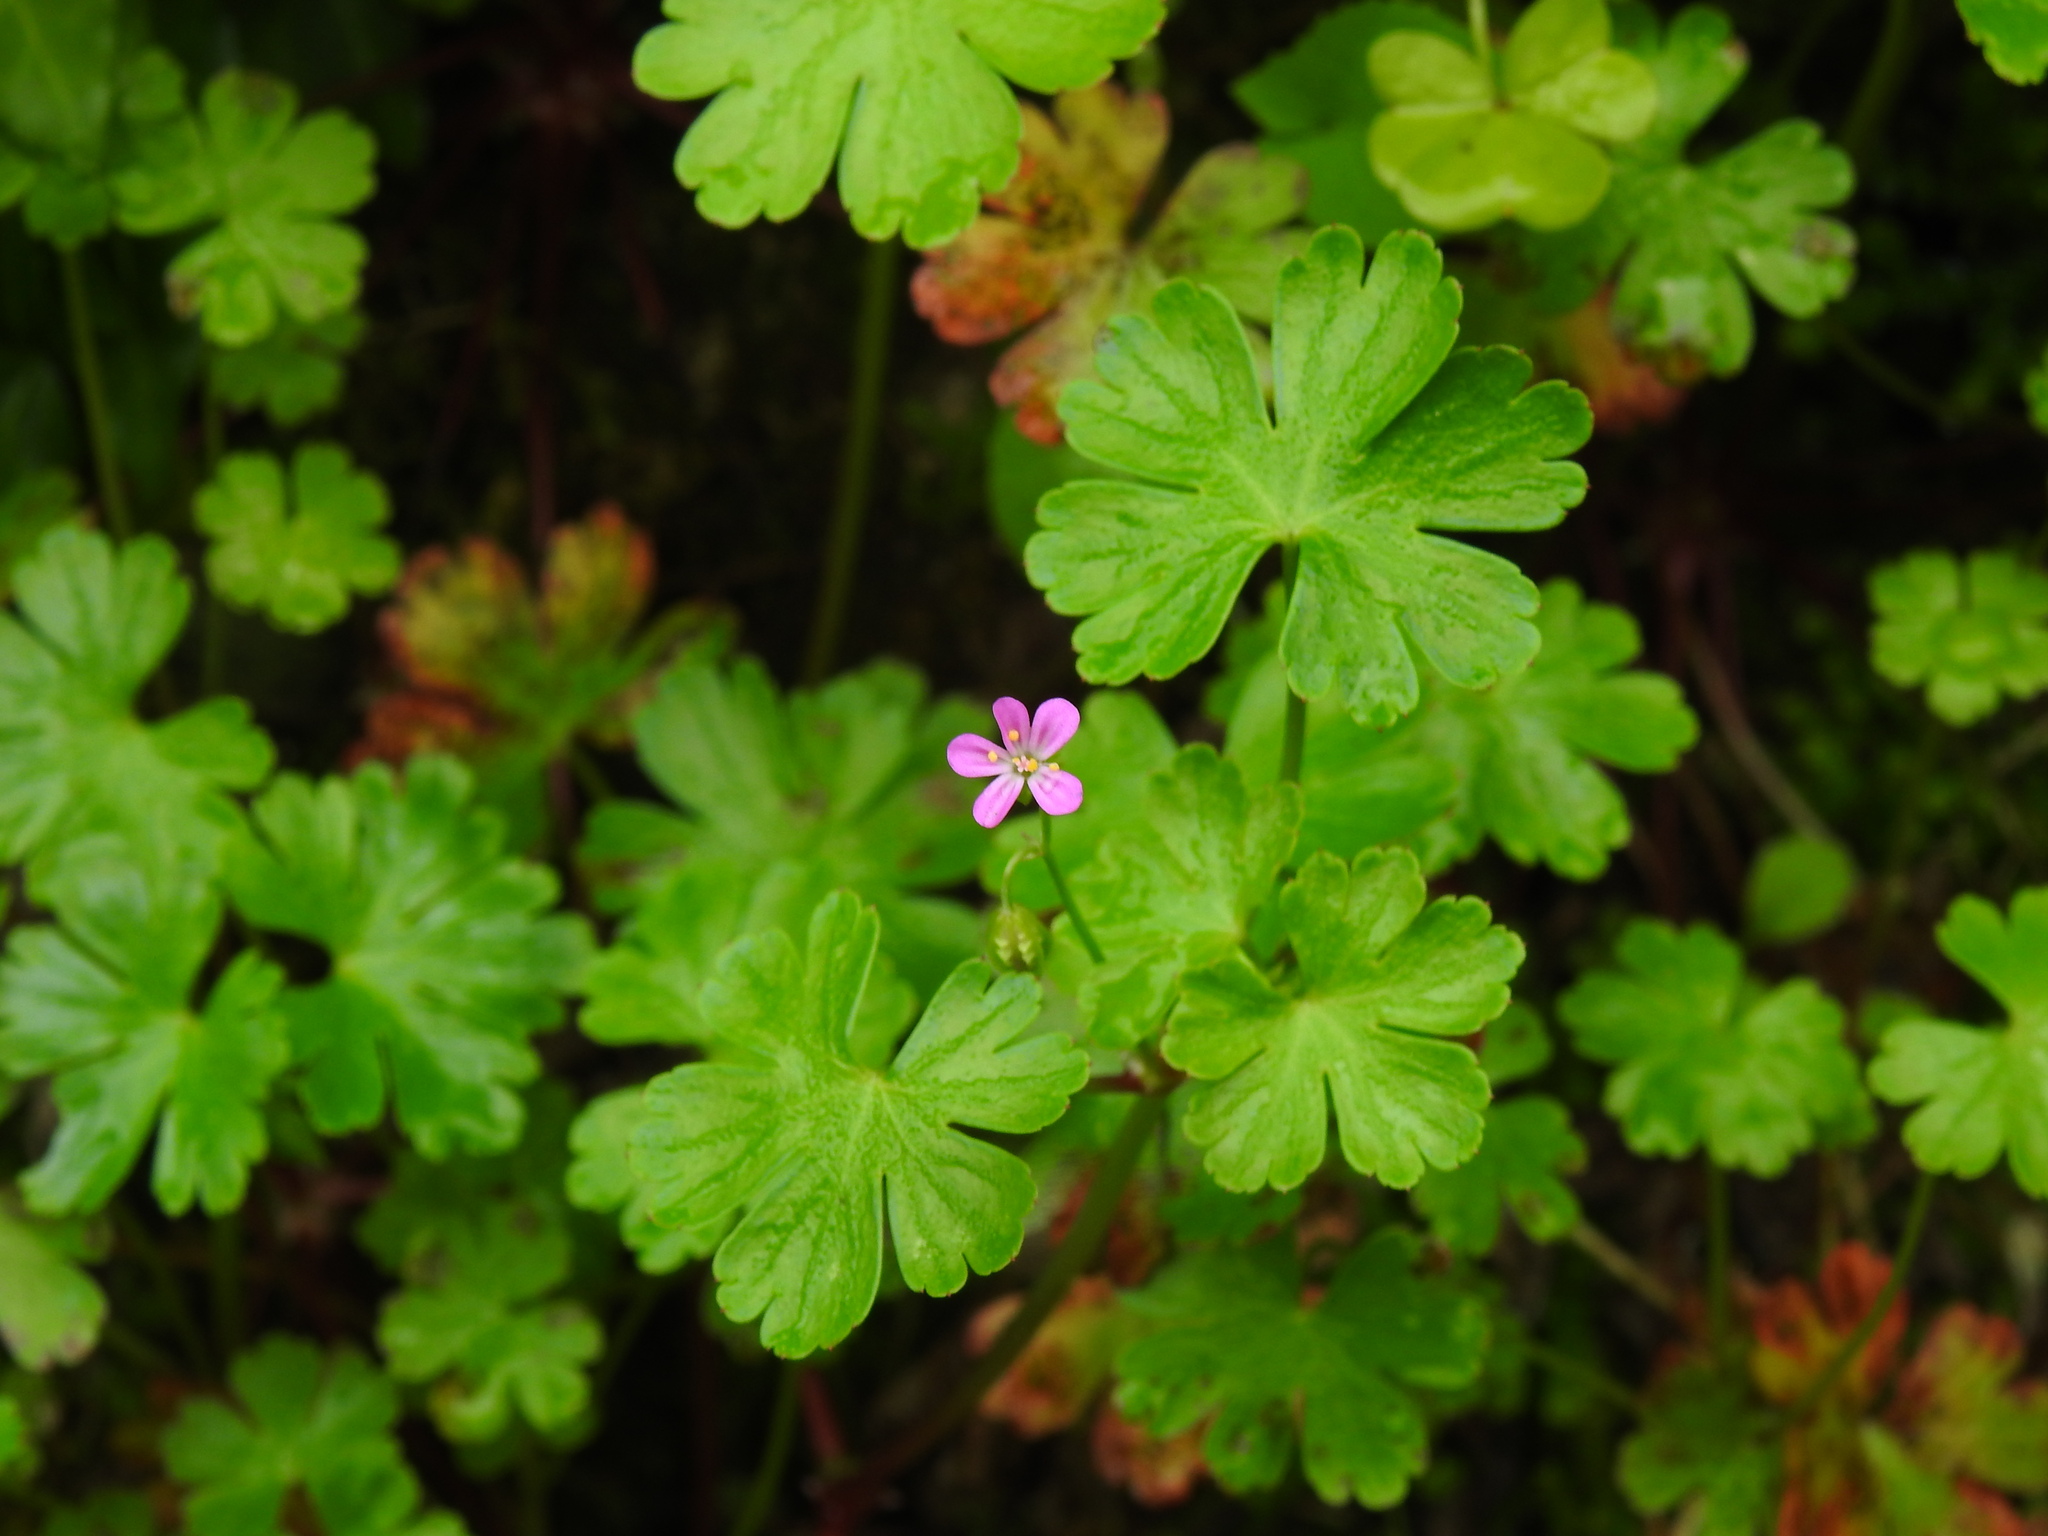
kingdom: Plantae
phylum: Tracheophyta
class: Magnoliopsida
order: Geraniales
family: Geraniaceae
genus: Geranium
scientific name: Geranium lucidum
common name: Shining crane's-bill
